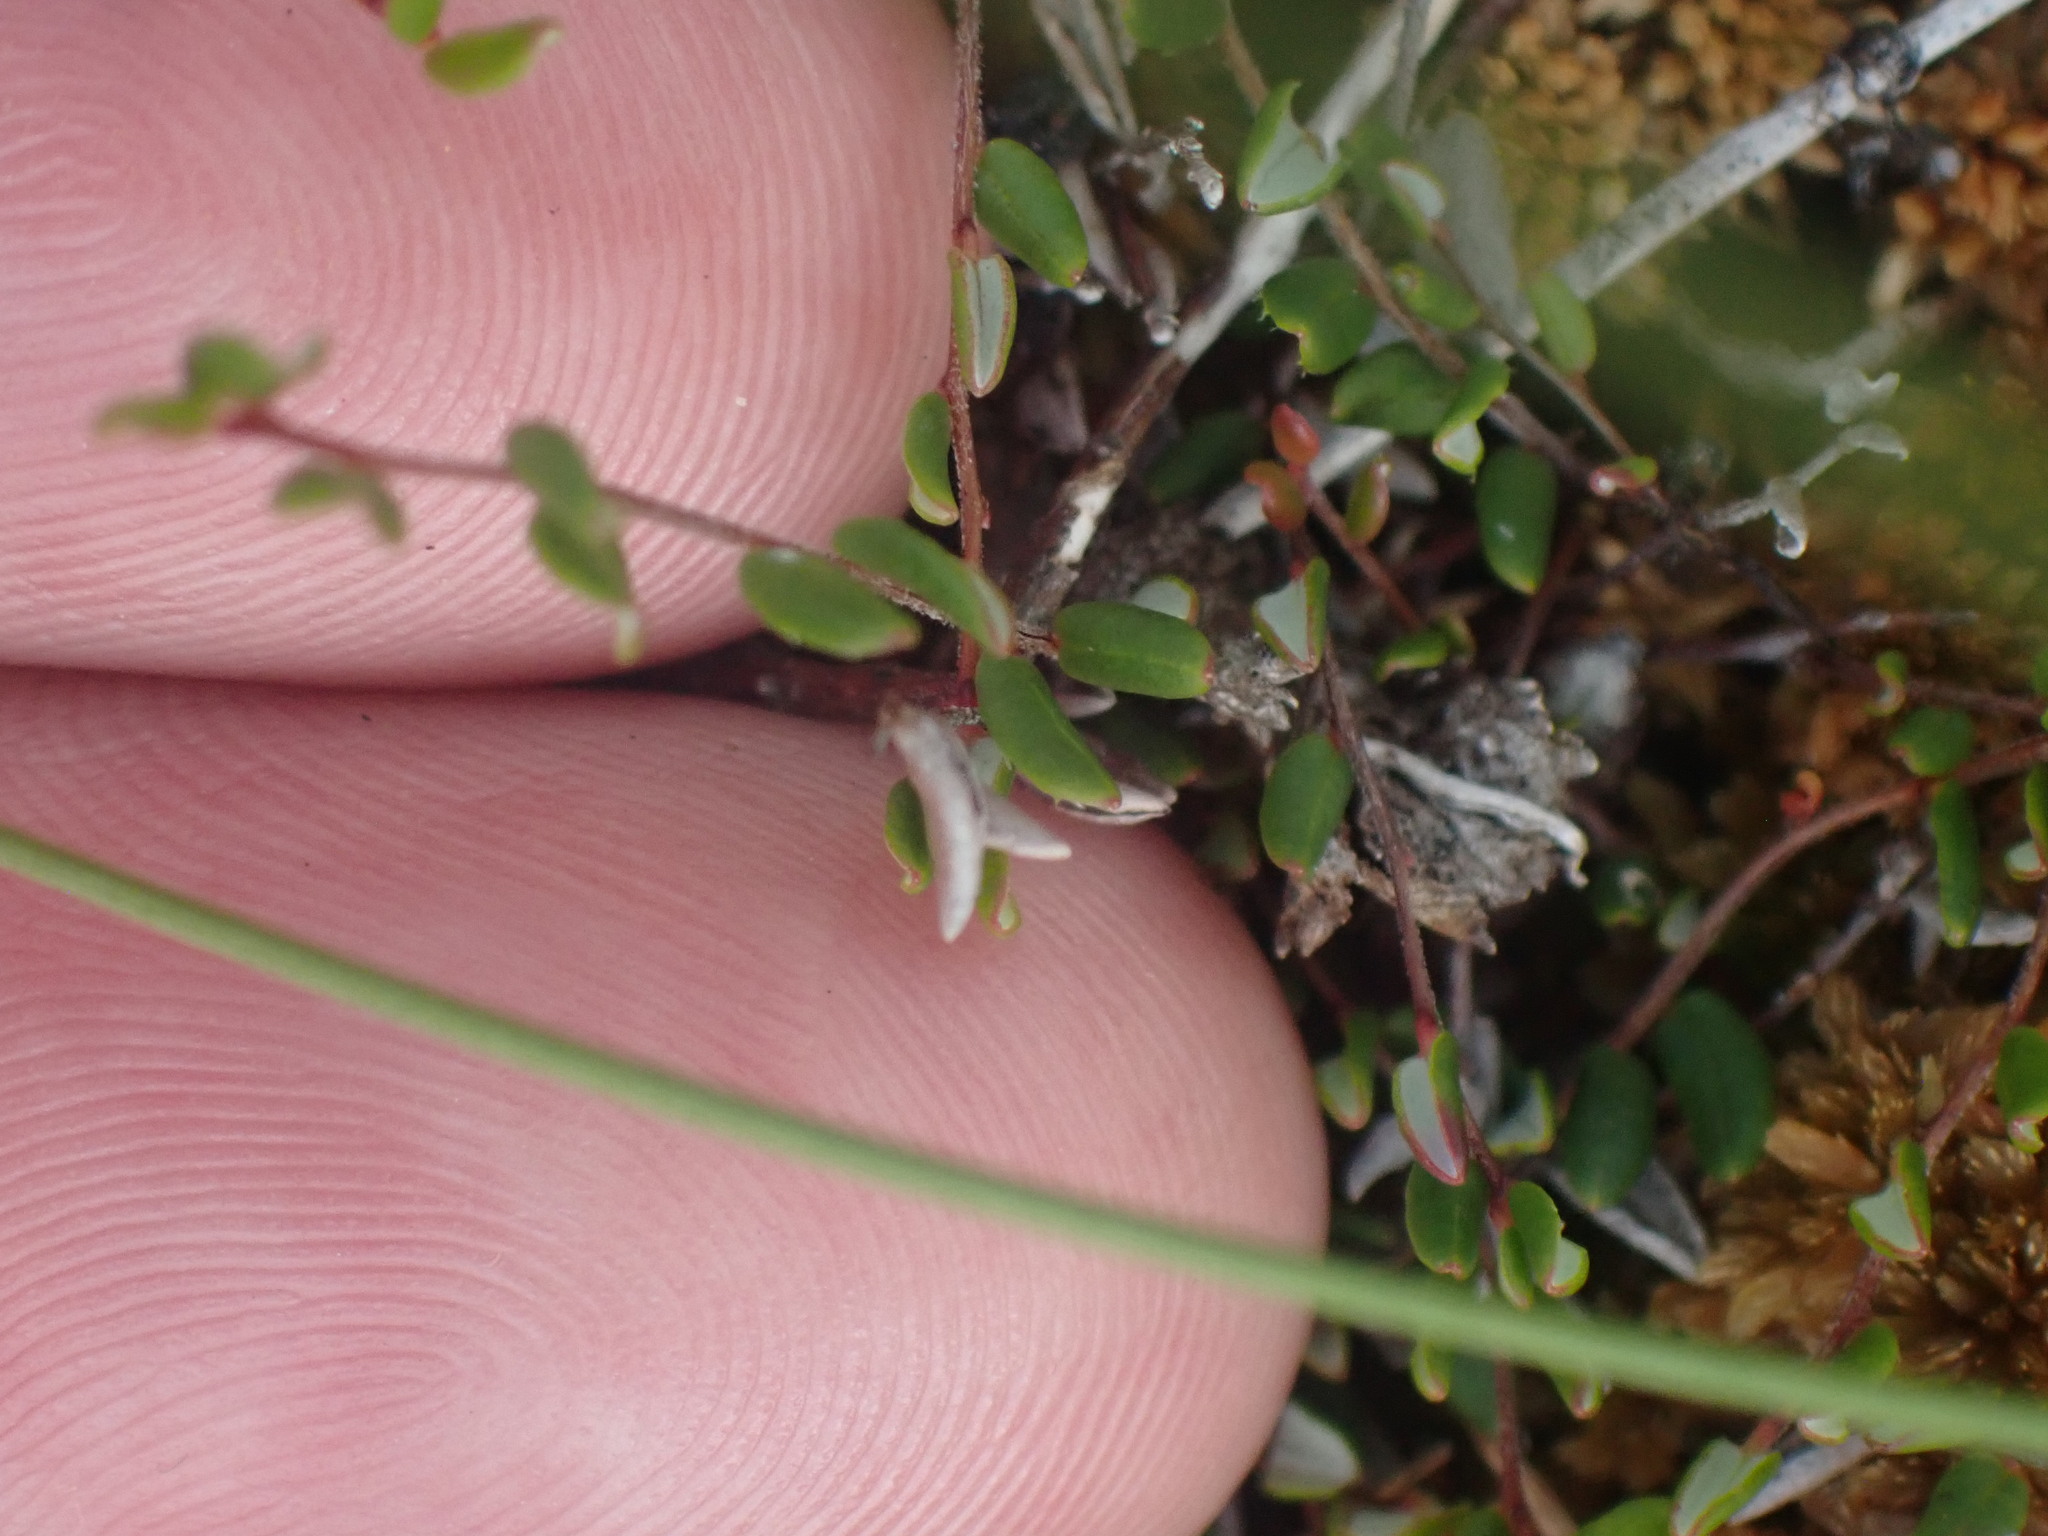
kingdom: Plantae
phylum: Tracheophyta
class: Magnoliopsida
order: Ericales
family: Ericaceae
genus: Vaccinium
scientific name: Vaccinium oxycoccos
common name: Cranberry
